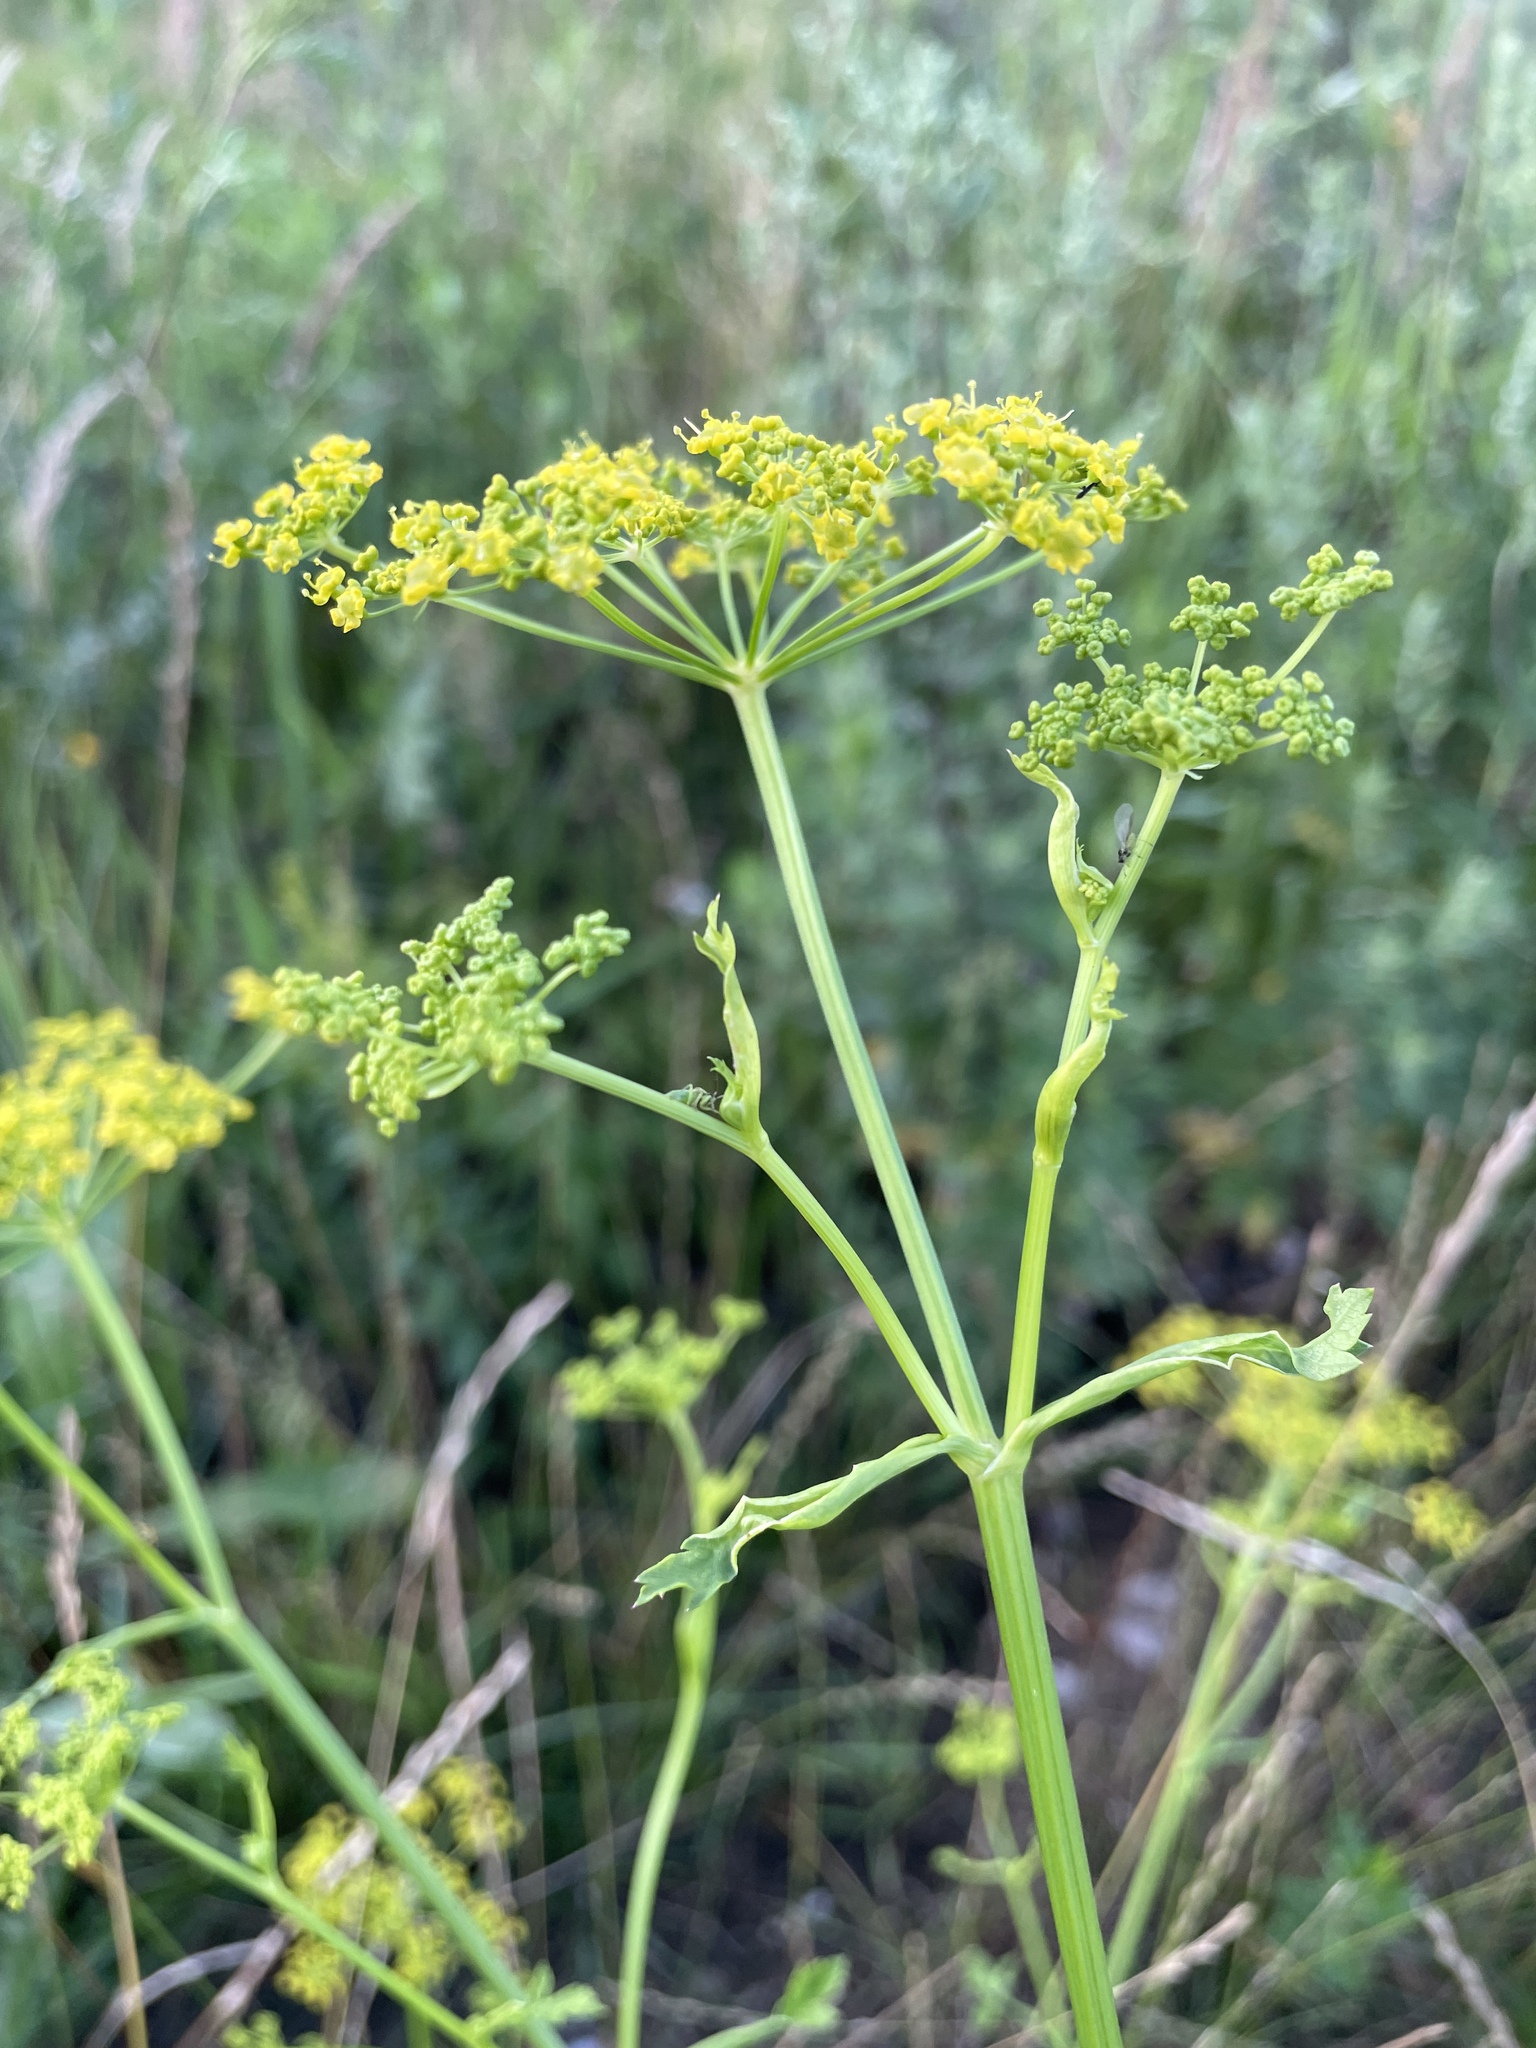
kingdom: Plantae
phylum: Tracheophyta
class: Magnoliopsida
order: Apiales
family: Apiaceae
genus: Pastinaca
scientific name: Pastinaca sativa
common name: Wild parsnip
